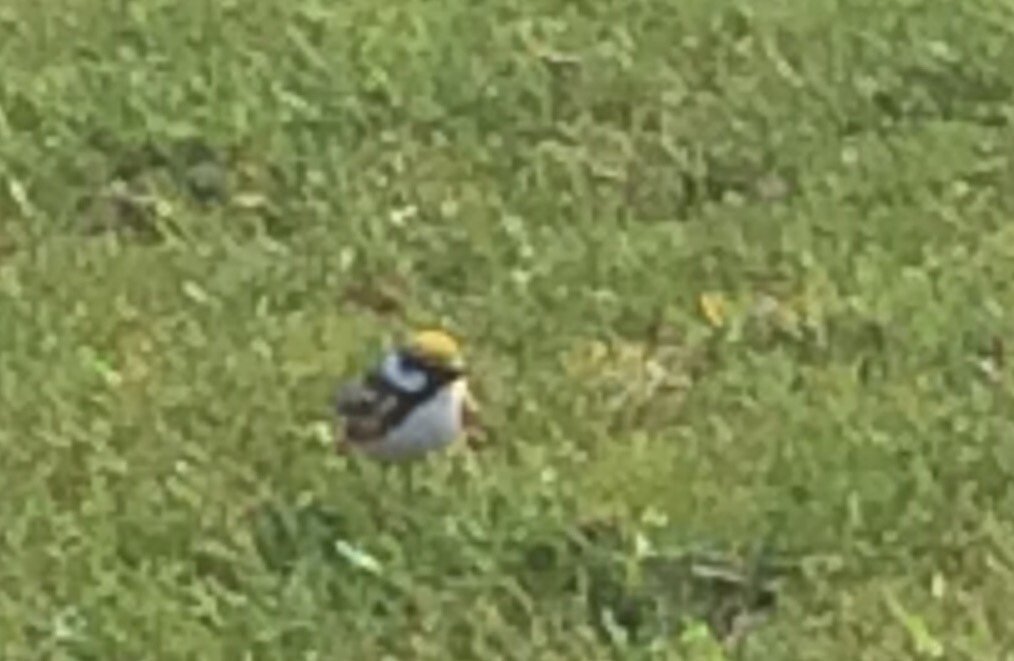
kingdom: Animalia
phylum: Chordata
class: Aves
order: Passeriformes
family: Parulidae
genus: Setophaga
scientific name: Setophaga pensylvanica
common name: Chestnut-sided warbler
